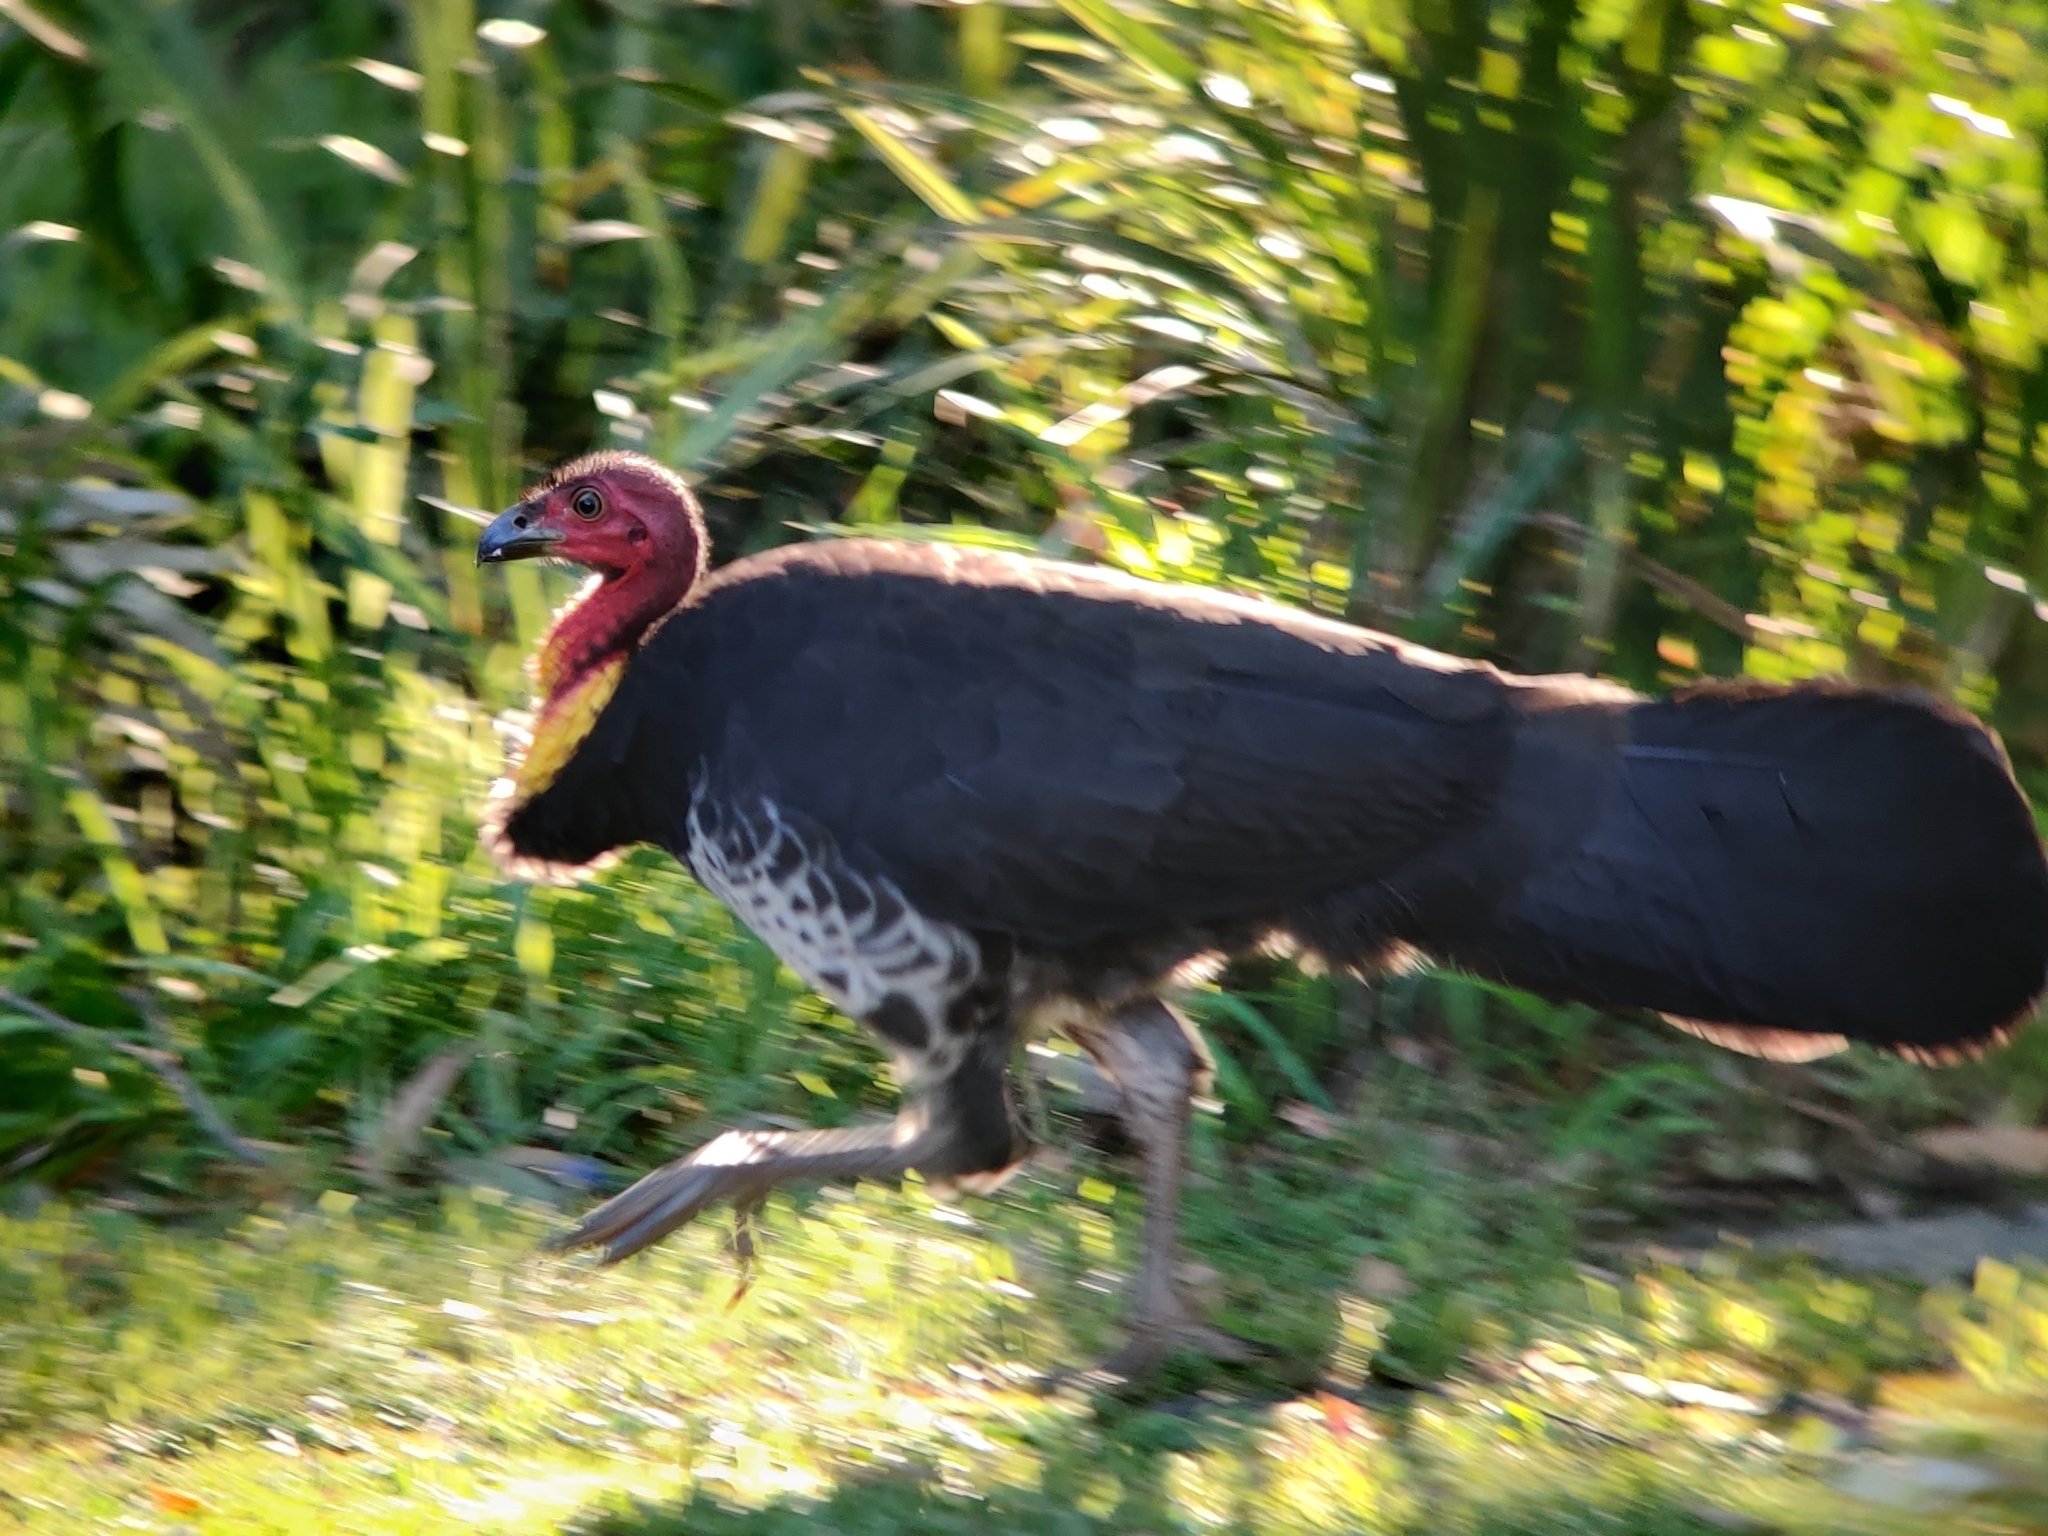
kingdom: Animalia
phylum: Chordata
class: Aves
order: Galliformes
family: Megapodiidae
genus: Alectura
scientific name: Alectura lathami
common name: Australian brushturkey
